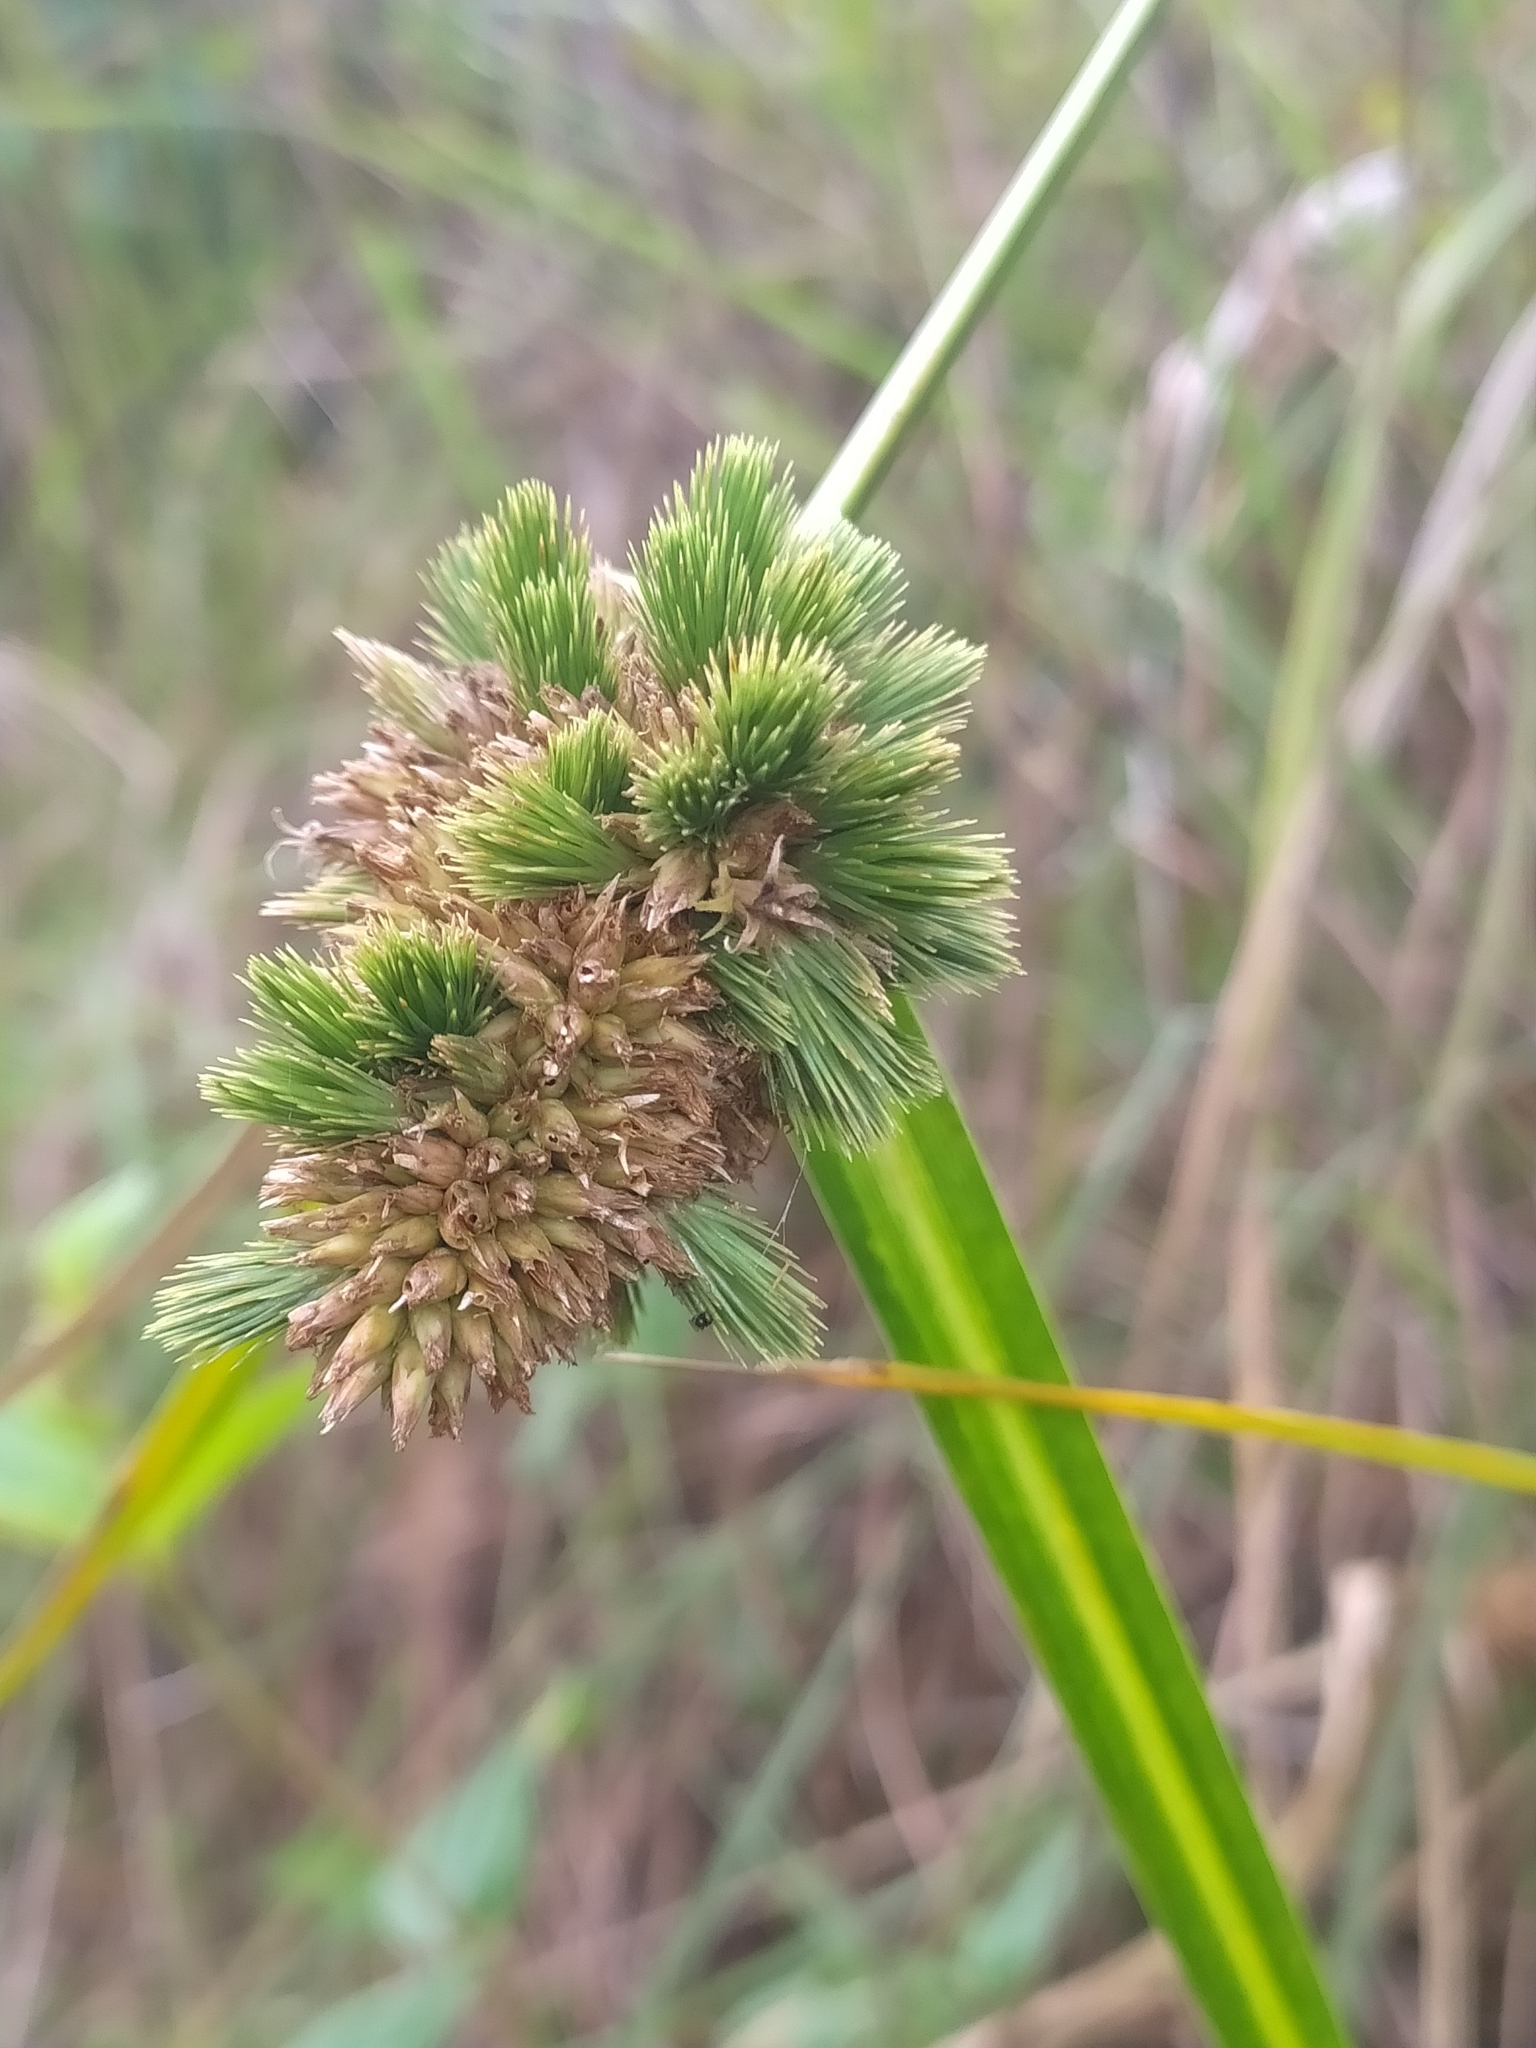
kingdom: Plantae
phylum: Tracheophyta
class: Liliopsida
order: Poales
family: Cyperaceae
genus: Rhynchospora
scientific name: Rhynchospora cephalotes
